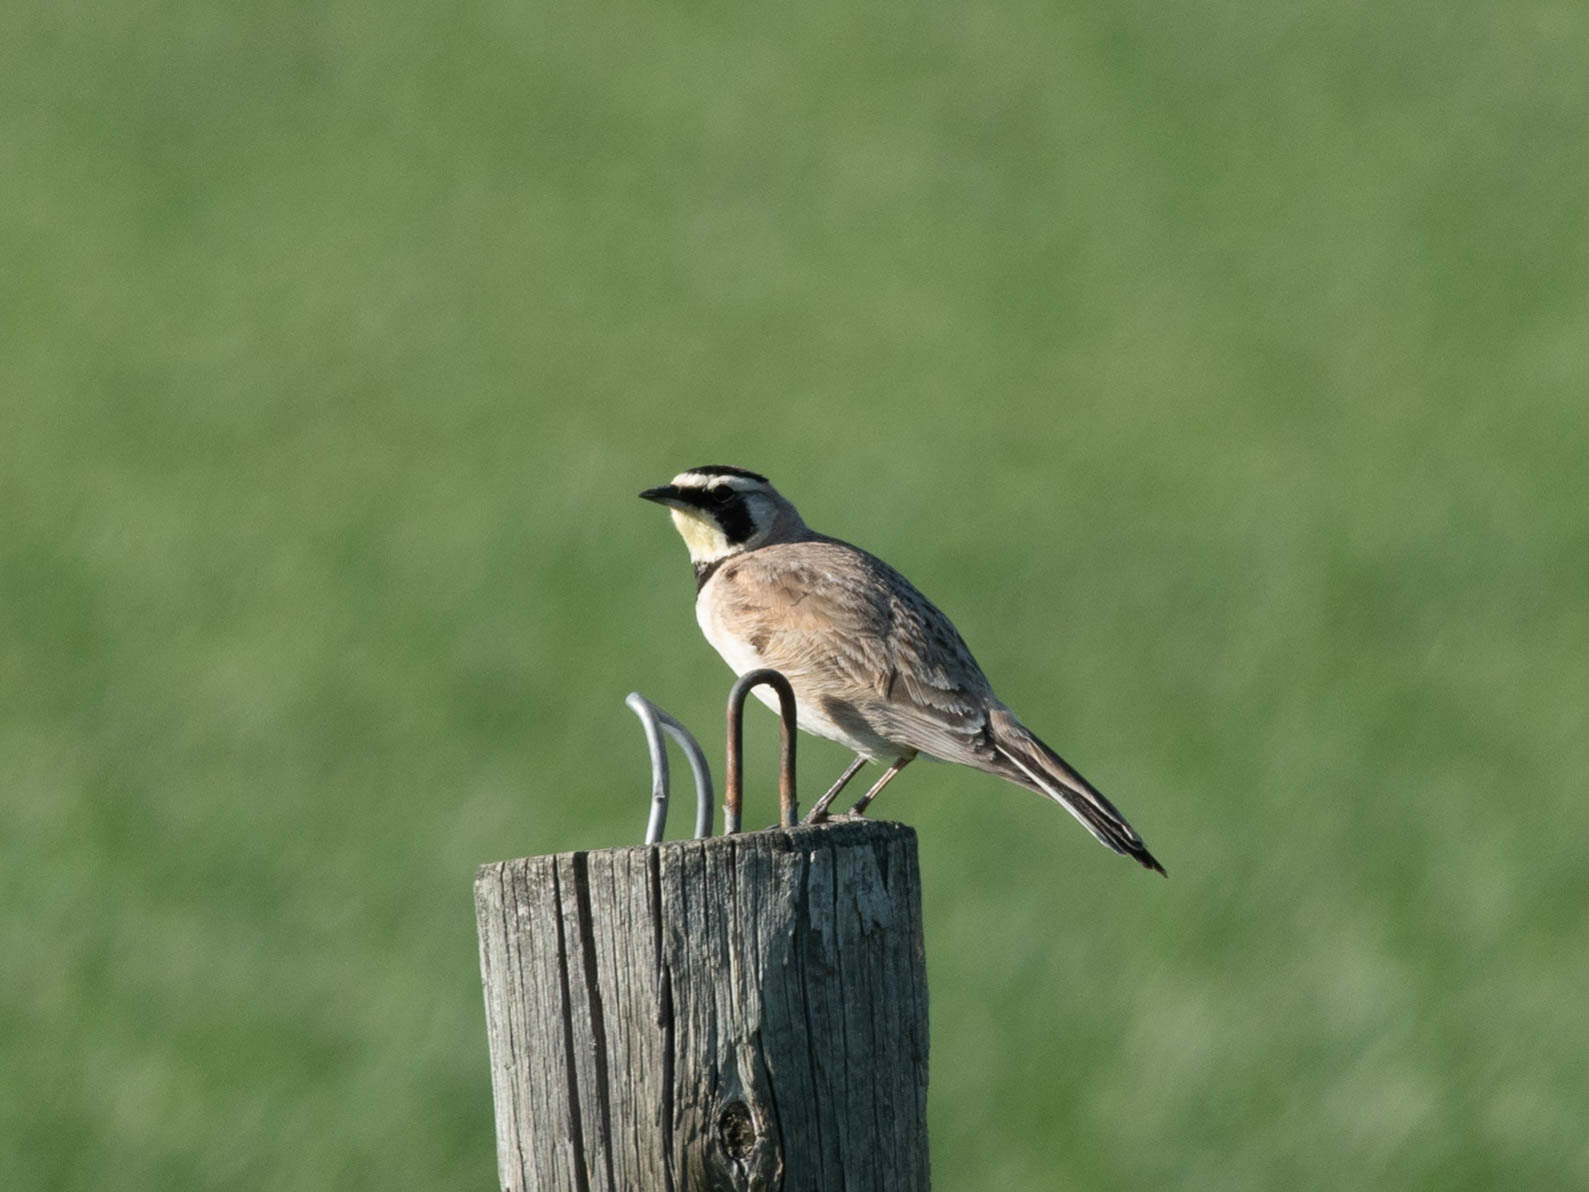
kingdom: Animalia
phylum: Chordata
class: Aves
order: Passeriformes
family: Alaudidae
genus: Eremophila
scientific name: Eremophila alpestris
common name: Horned lark
